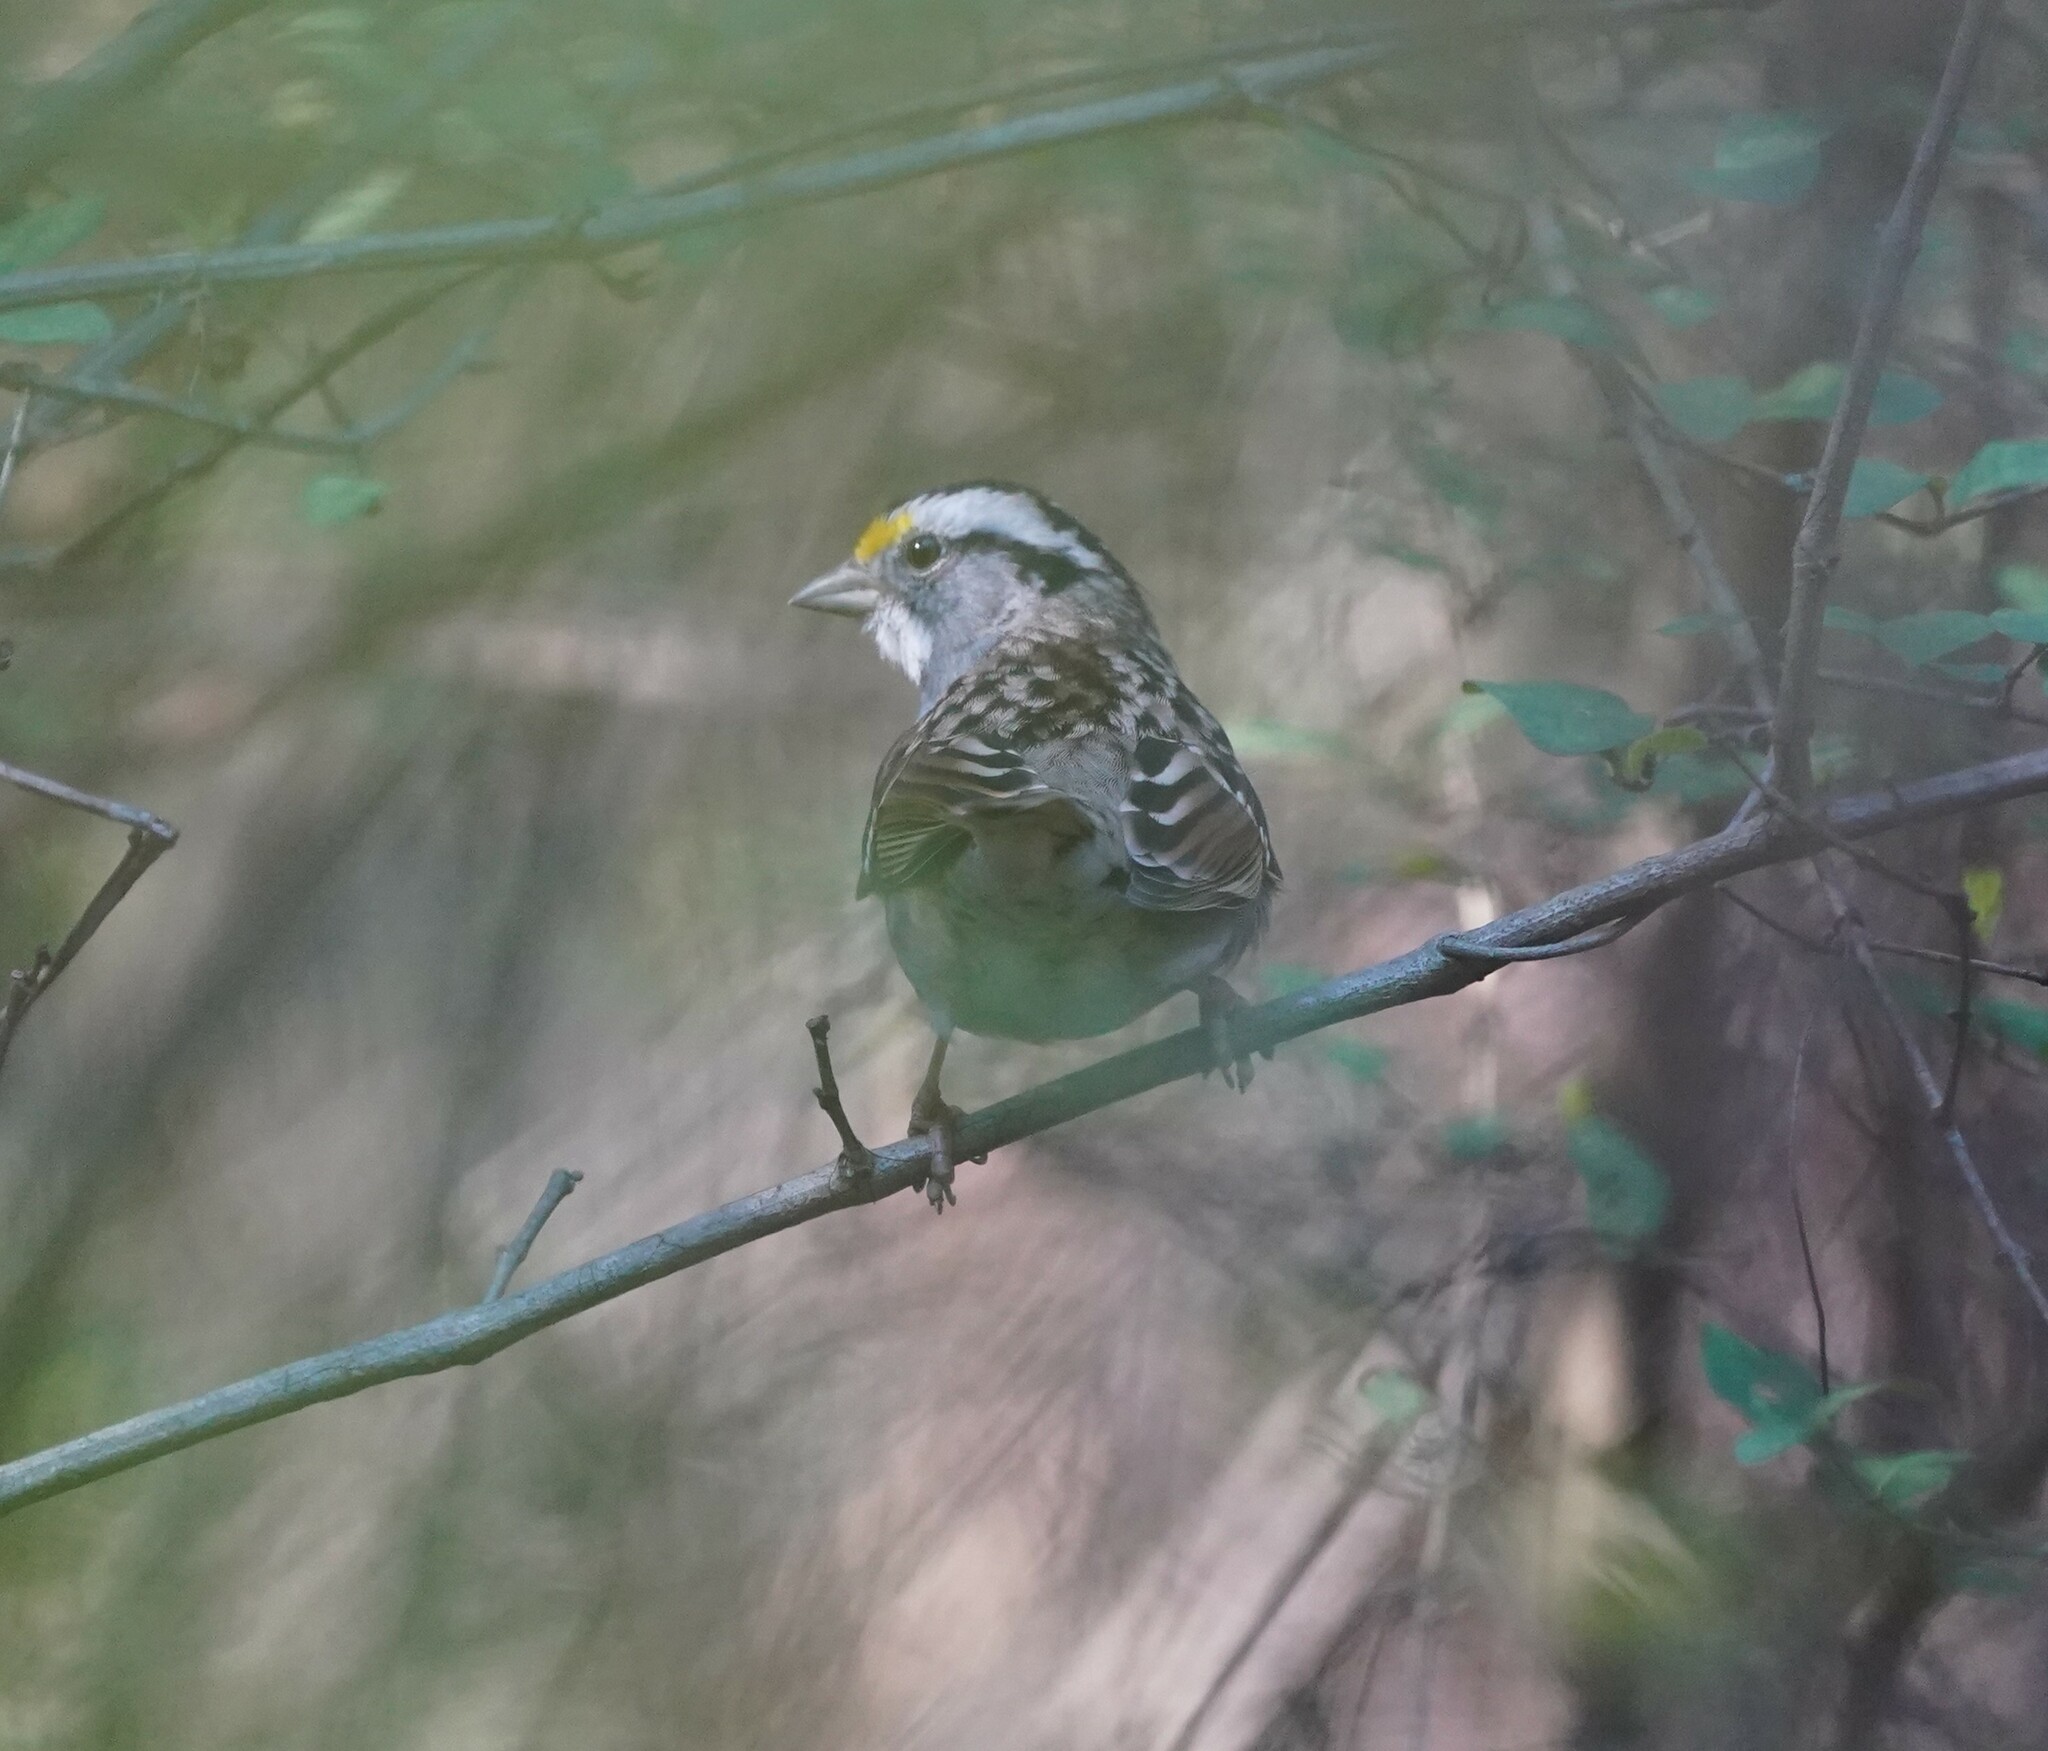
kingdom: Animalia
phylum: Chordata
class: Aves
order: Passeriformes
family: Passerellidae
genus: Zonotrichia
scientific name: Zonotrichia albicollis
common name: White-throated sparrow
